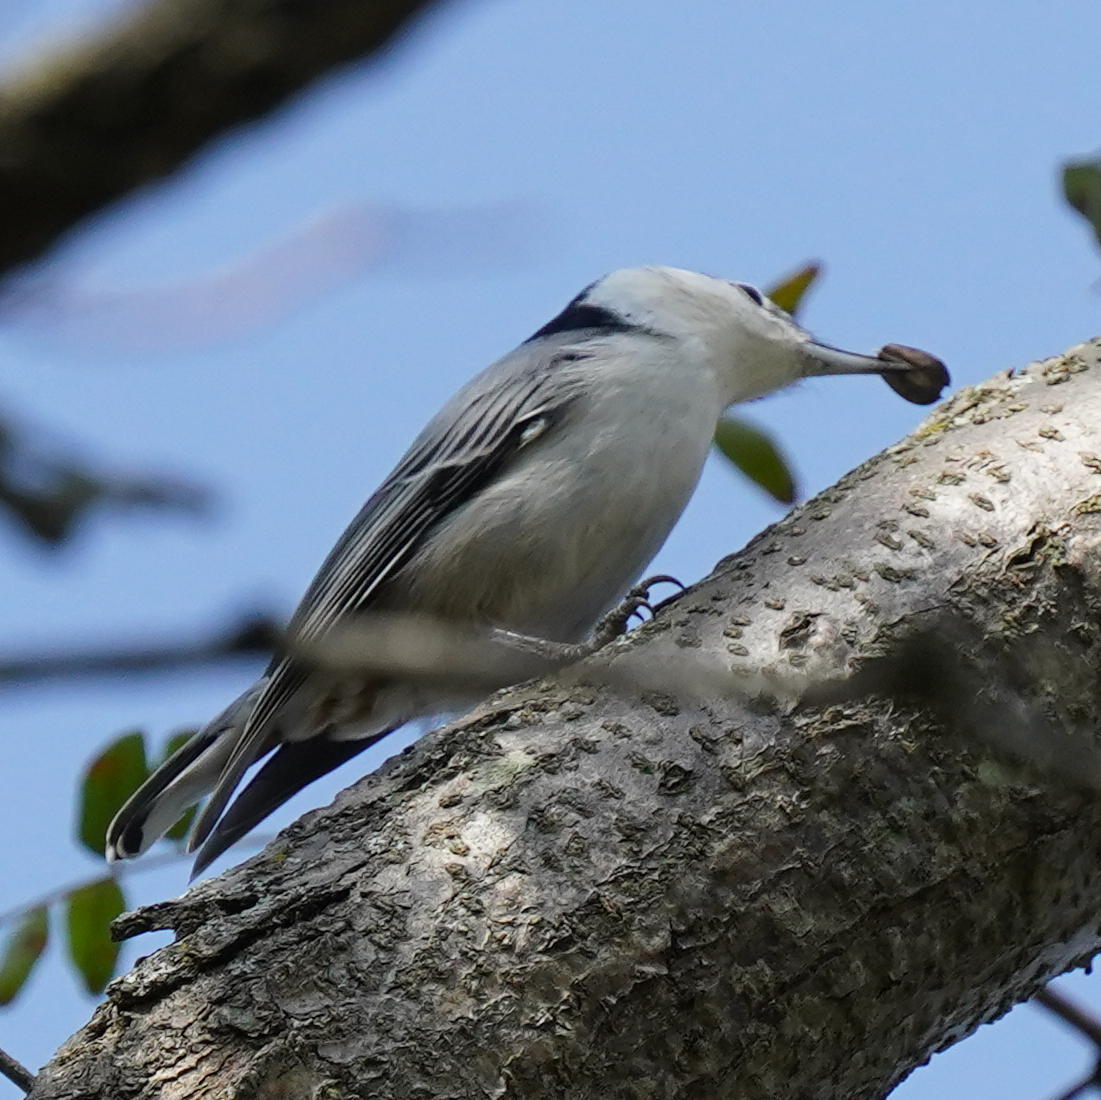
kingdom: Animalia
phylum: Chordata
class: Aves
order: Passeriformes
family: Sittidae
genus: Sitta
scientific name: Sitta carolinensis
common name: White-breasted nuthatch
